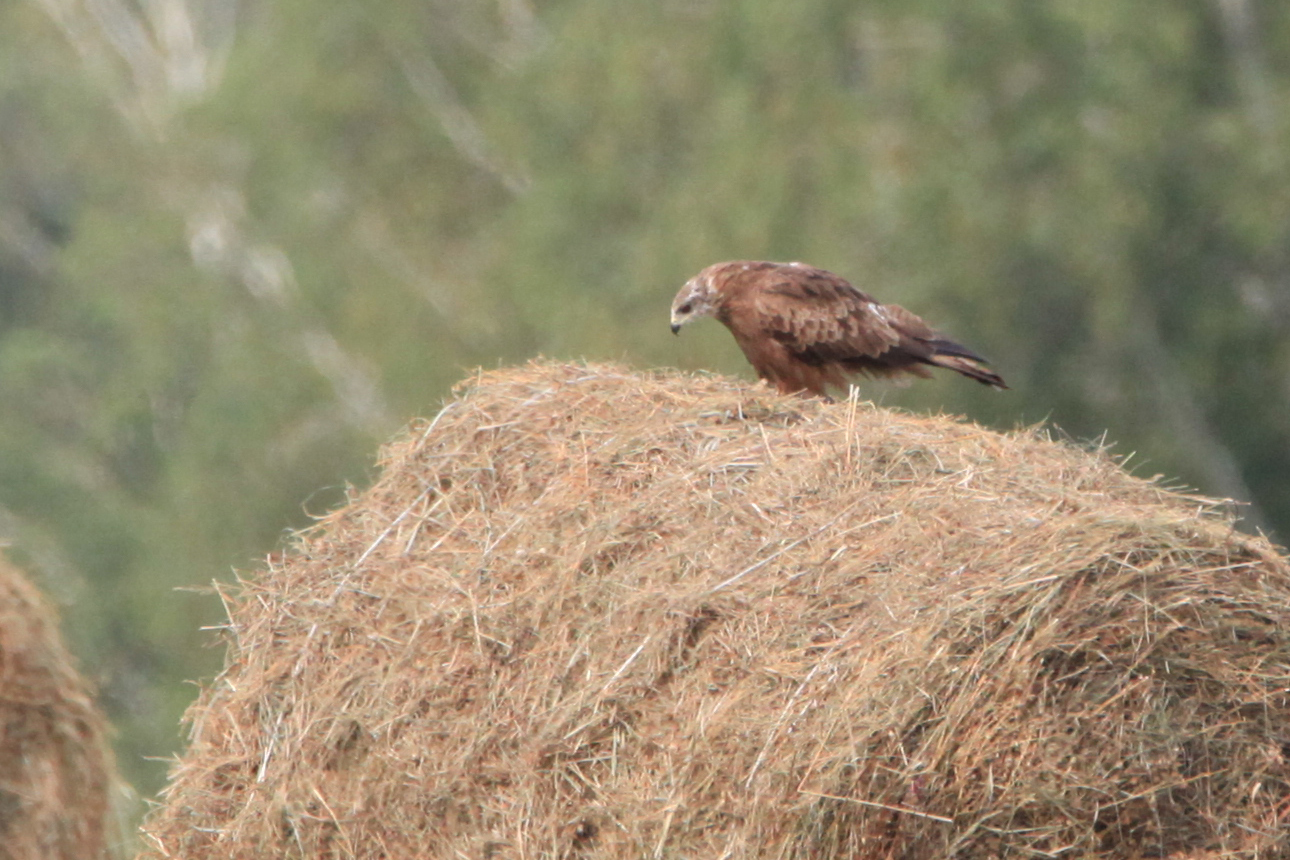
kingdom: Animalia
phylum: Chordata
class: Aves
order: Accipitriformes
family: Accipitridae
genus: Milvus
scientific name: Milvus migrans
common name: Black kite
